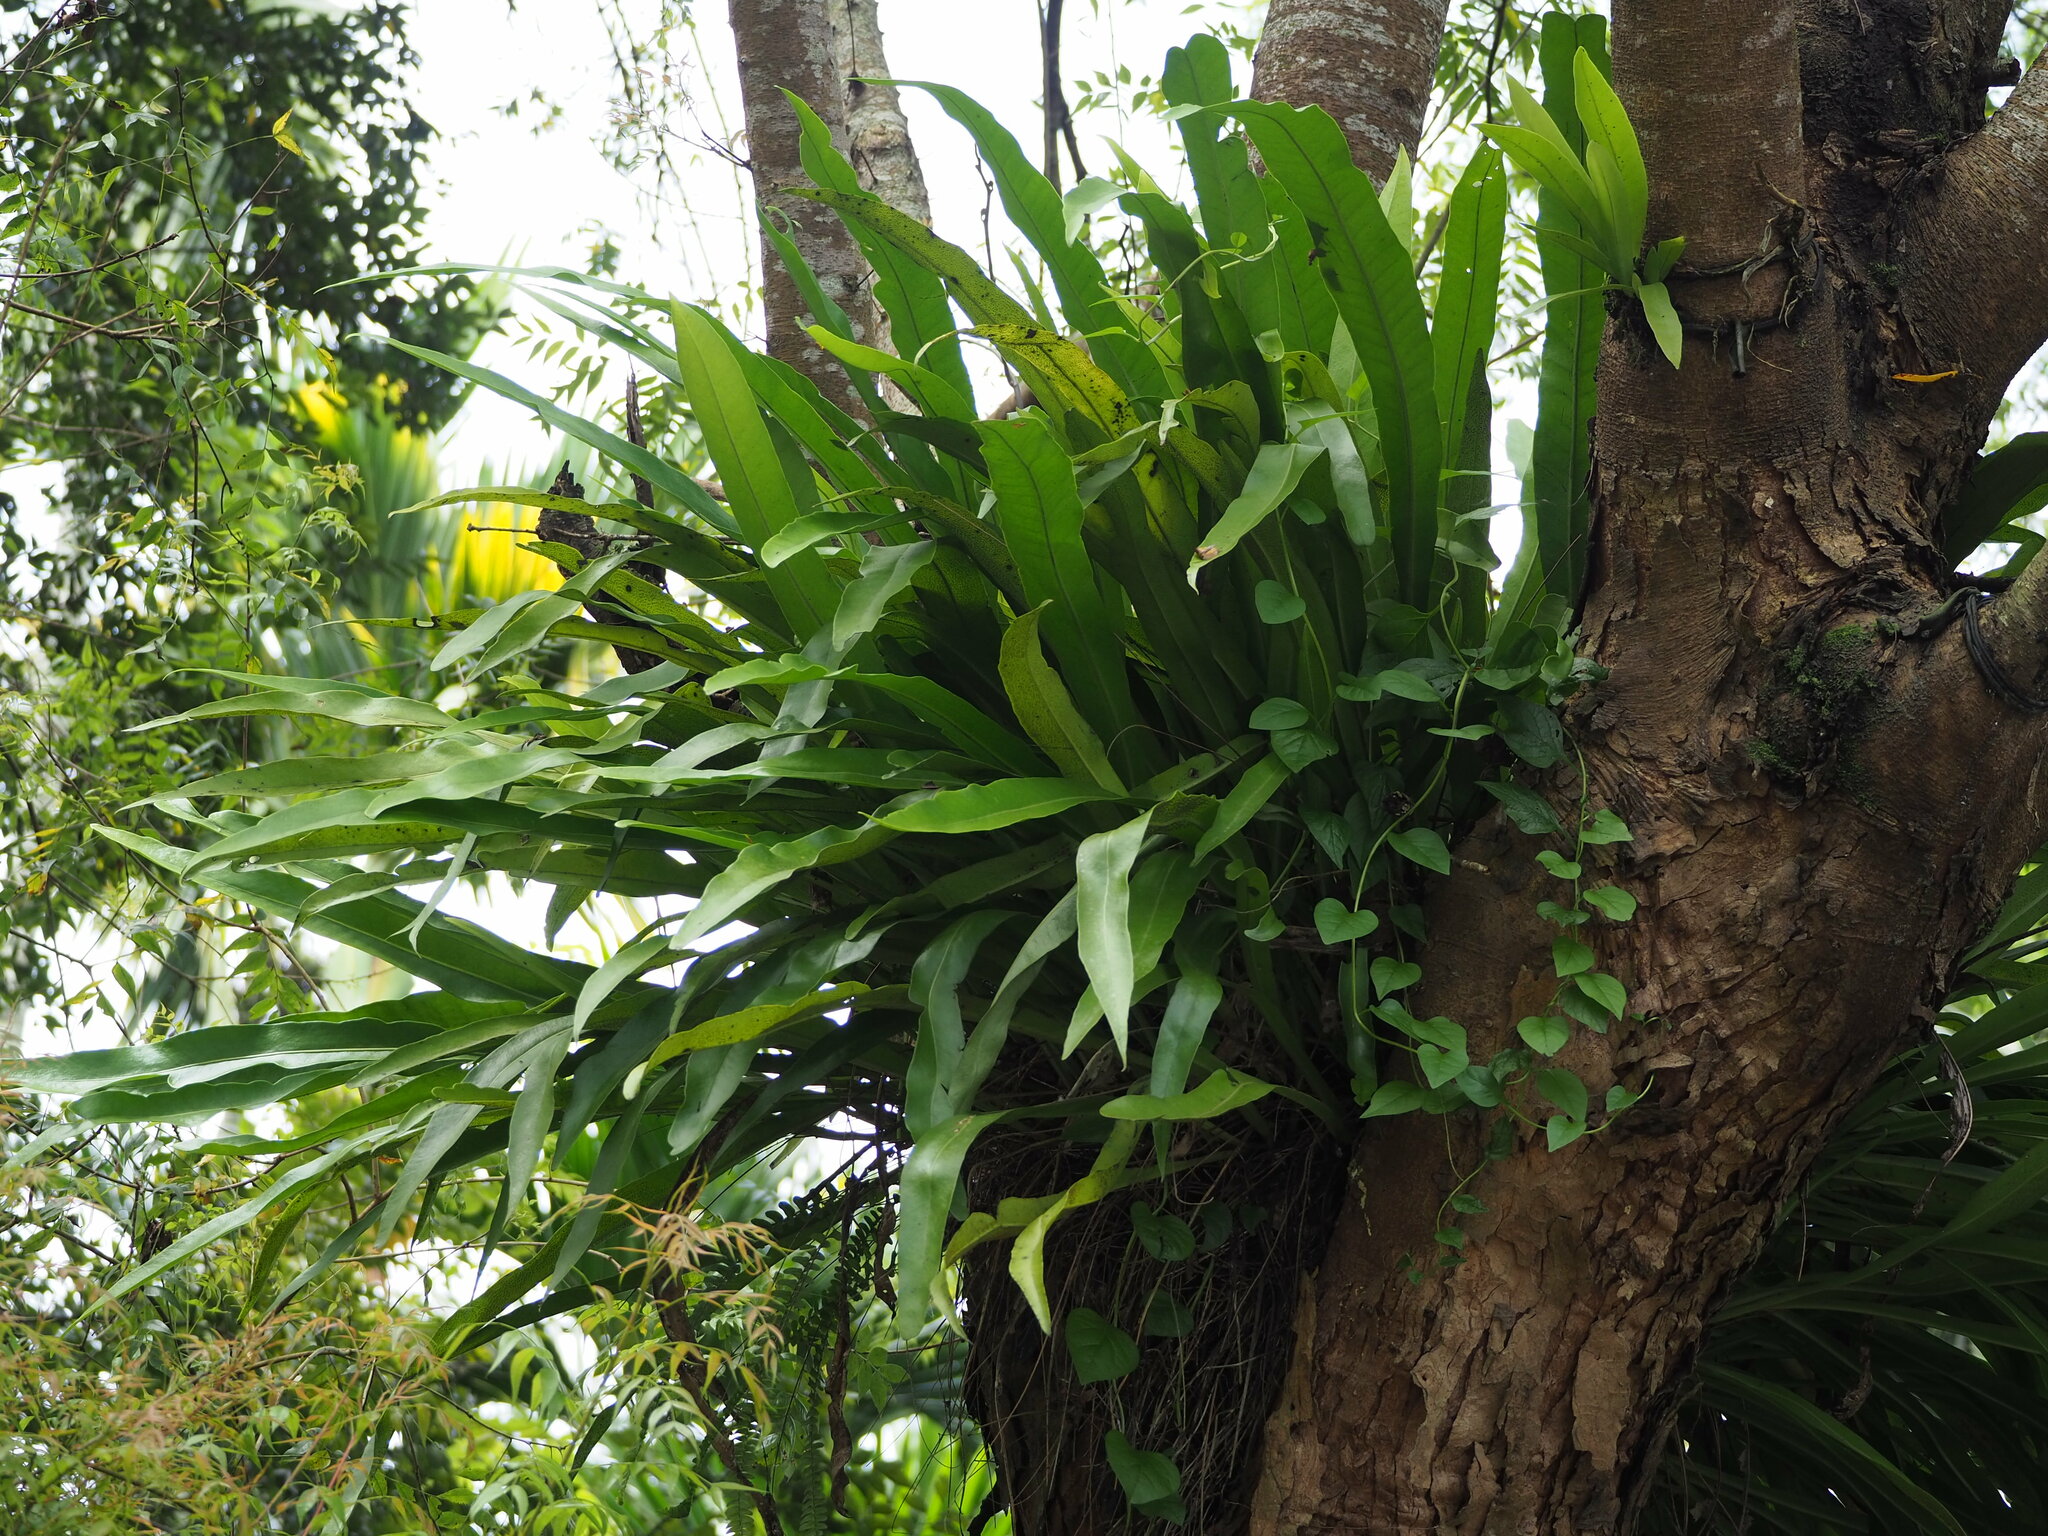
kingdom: Plantae
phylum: Tracheophyta
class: Polypodiopsida
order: Polypodiales
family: Polypodiaceae
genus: Microsorum
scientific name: Microsorum punctatum
